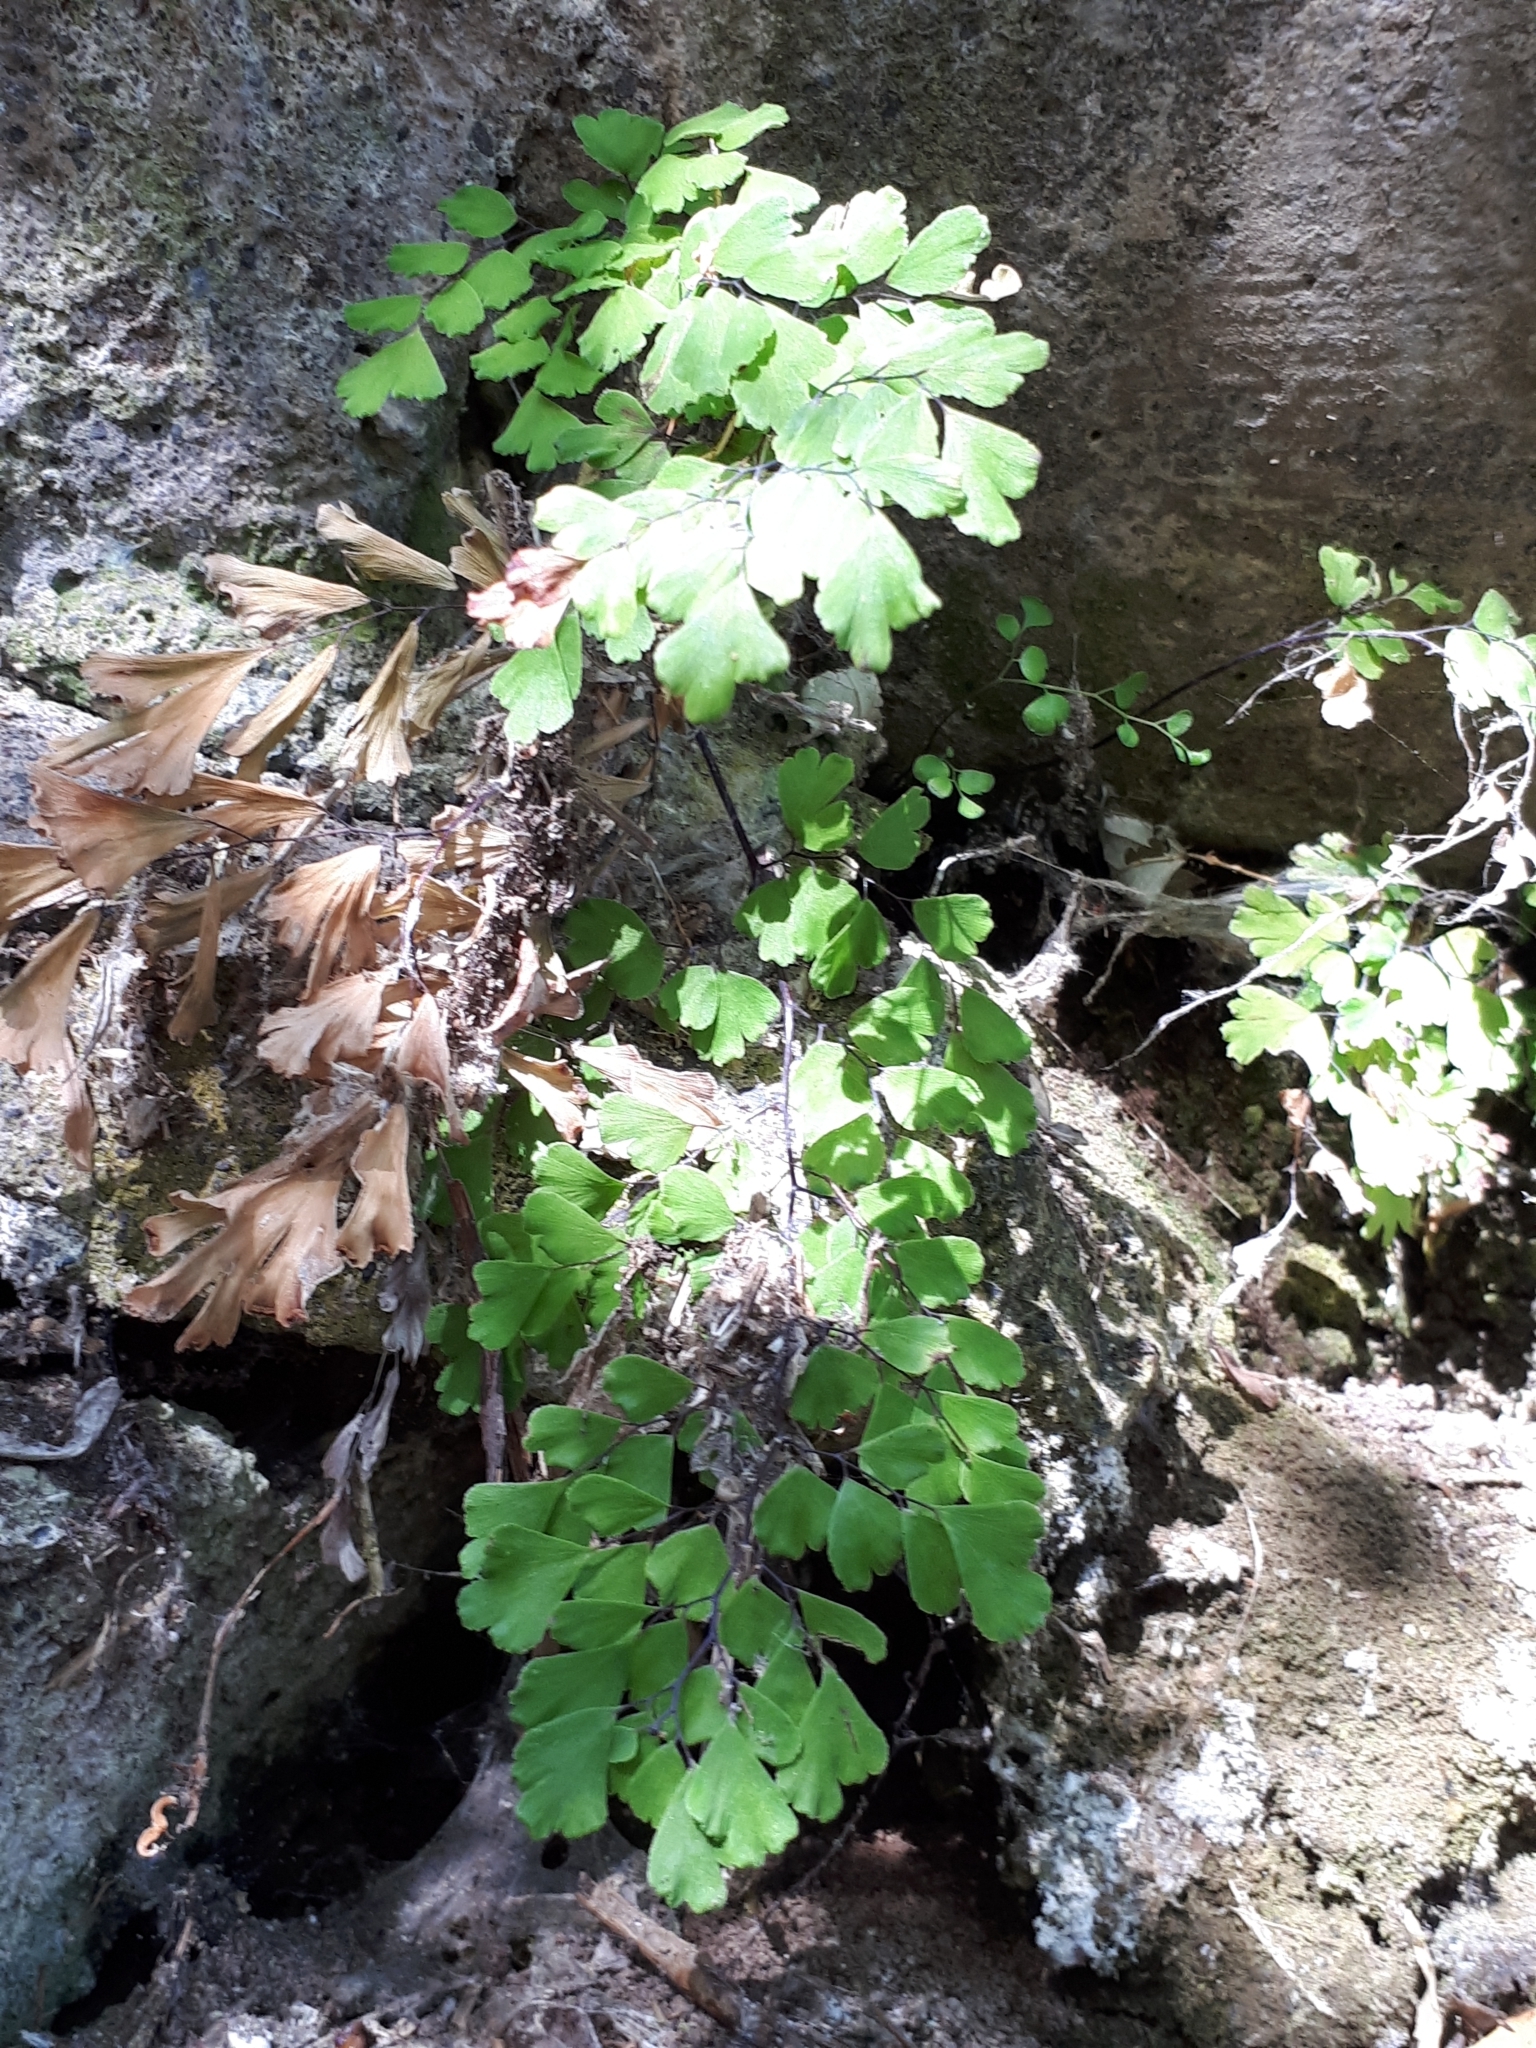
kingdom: Plantae
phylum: Tracheophyta
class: Polypodiopsida
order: Polypodiales
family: Pteridaceae
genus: Adiantum
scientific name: Adiantum capillus-veneris
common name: Maidenhair fern
